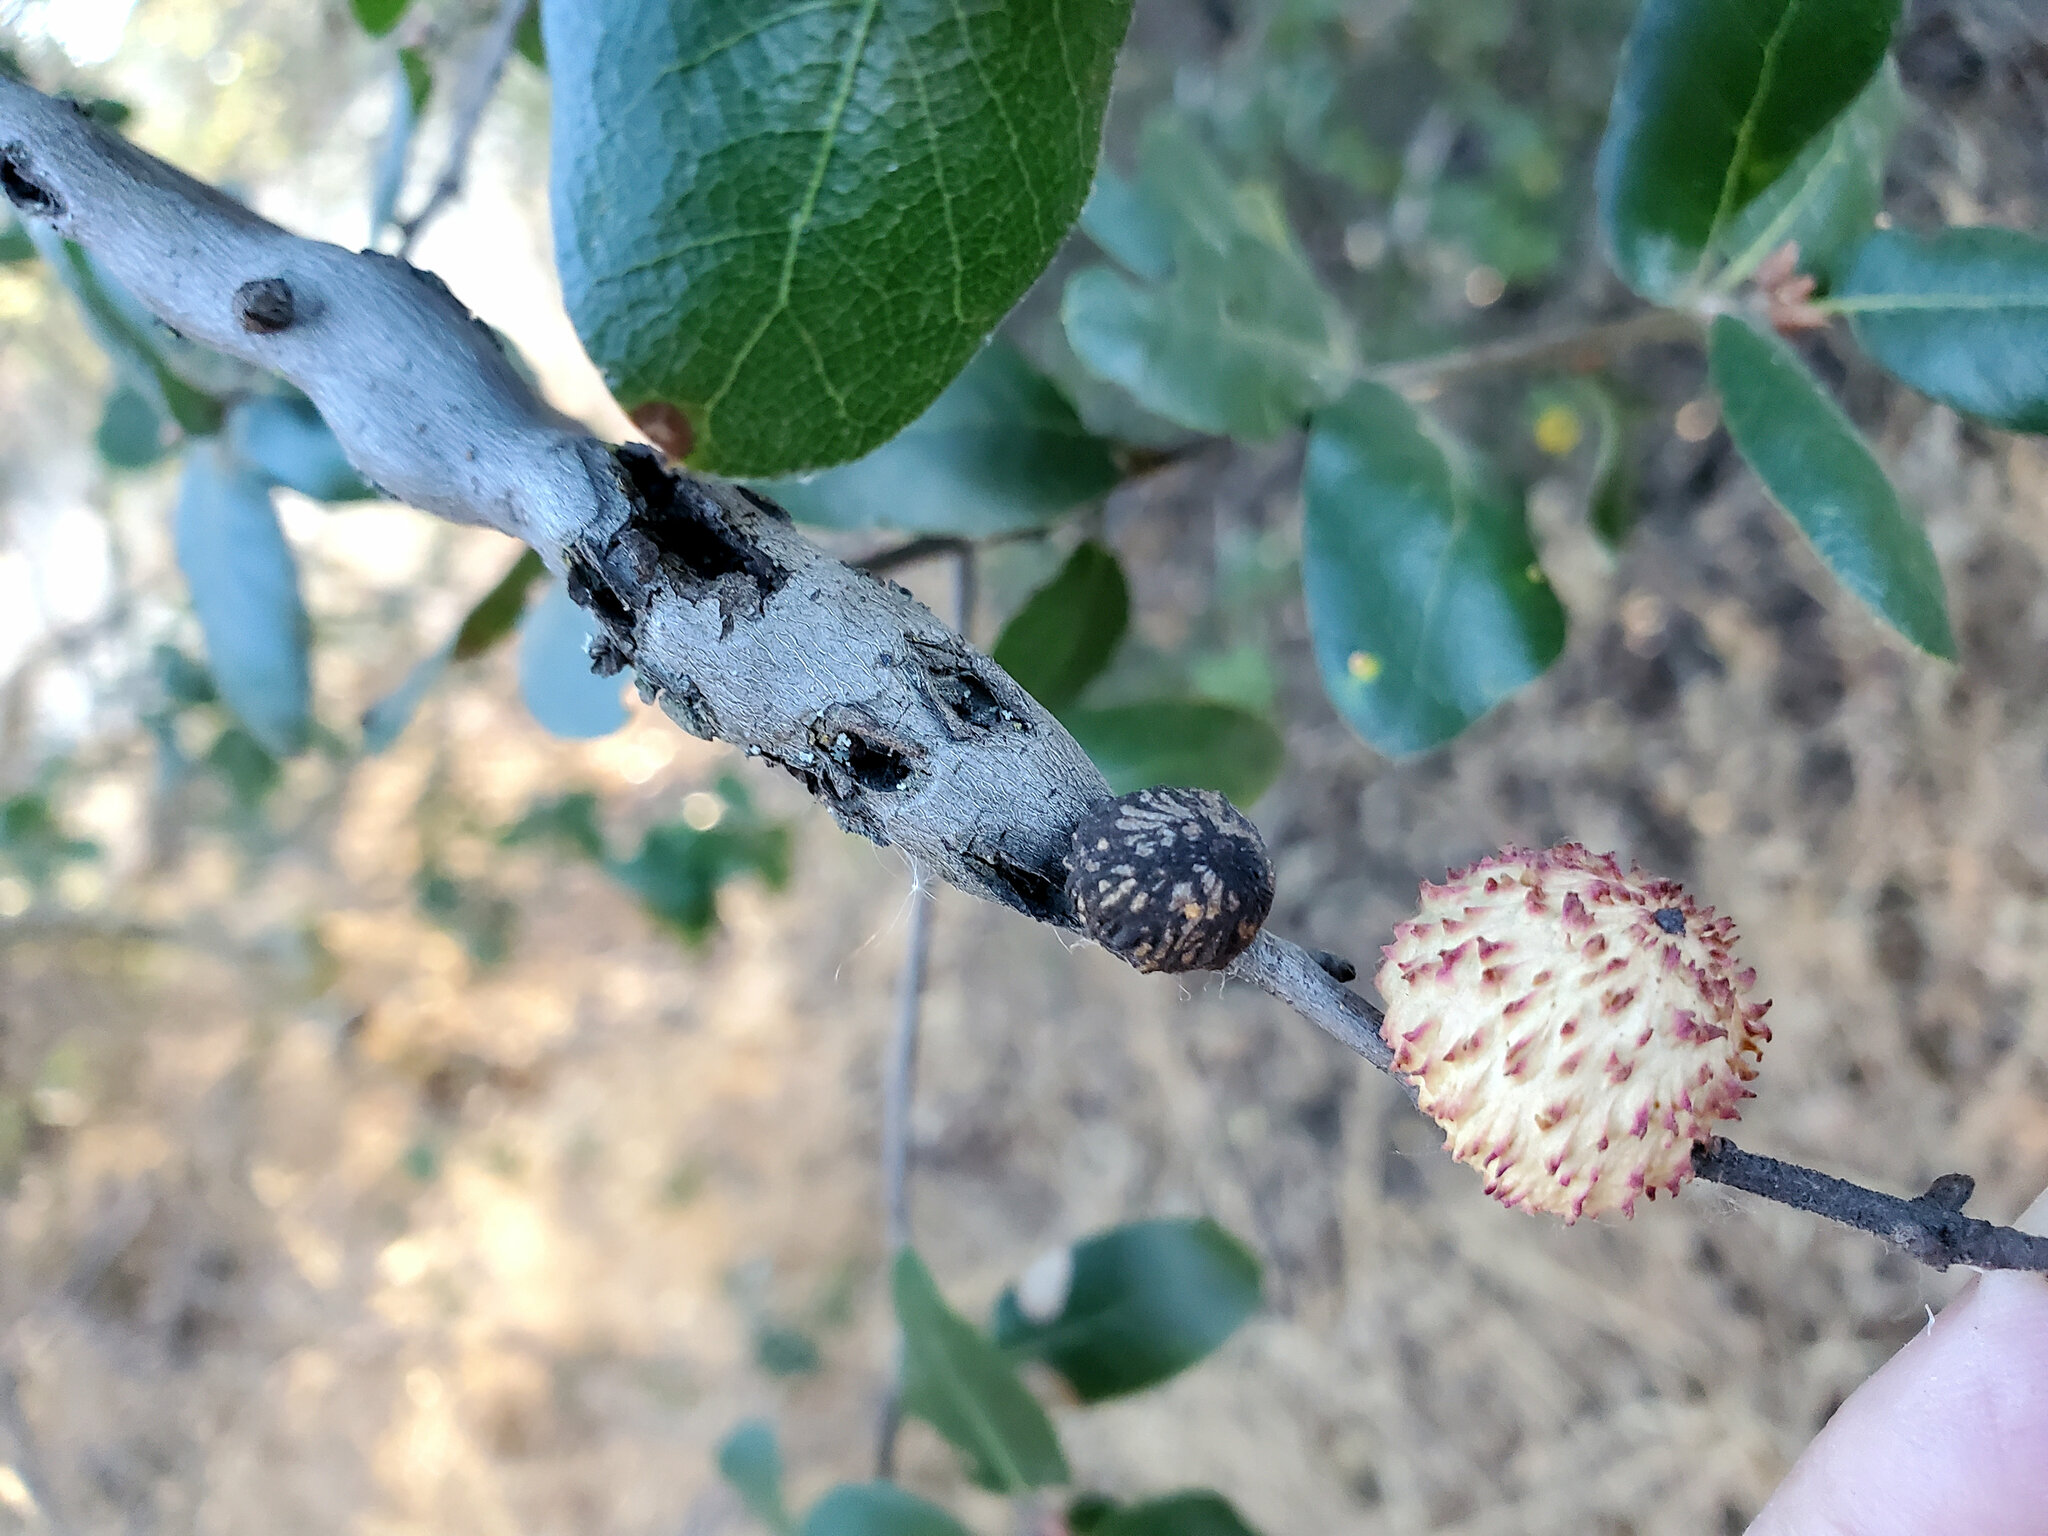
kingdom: Animalia
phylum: Arthropoda
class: Insecta
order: Hymenoptera
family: Cynipidae
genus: Callirhytis
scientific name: Callirhytis
